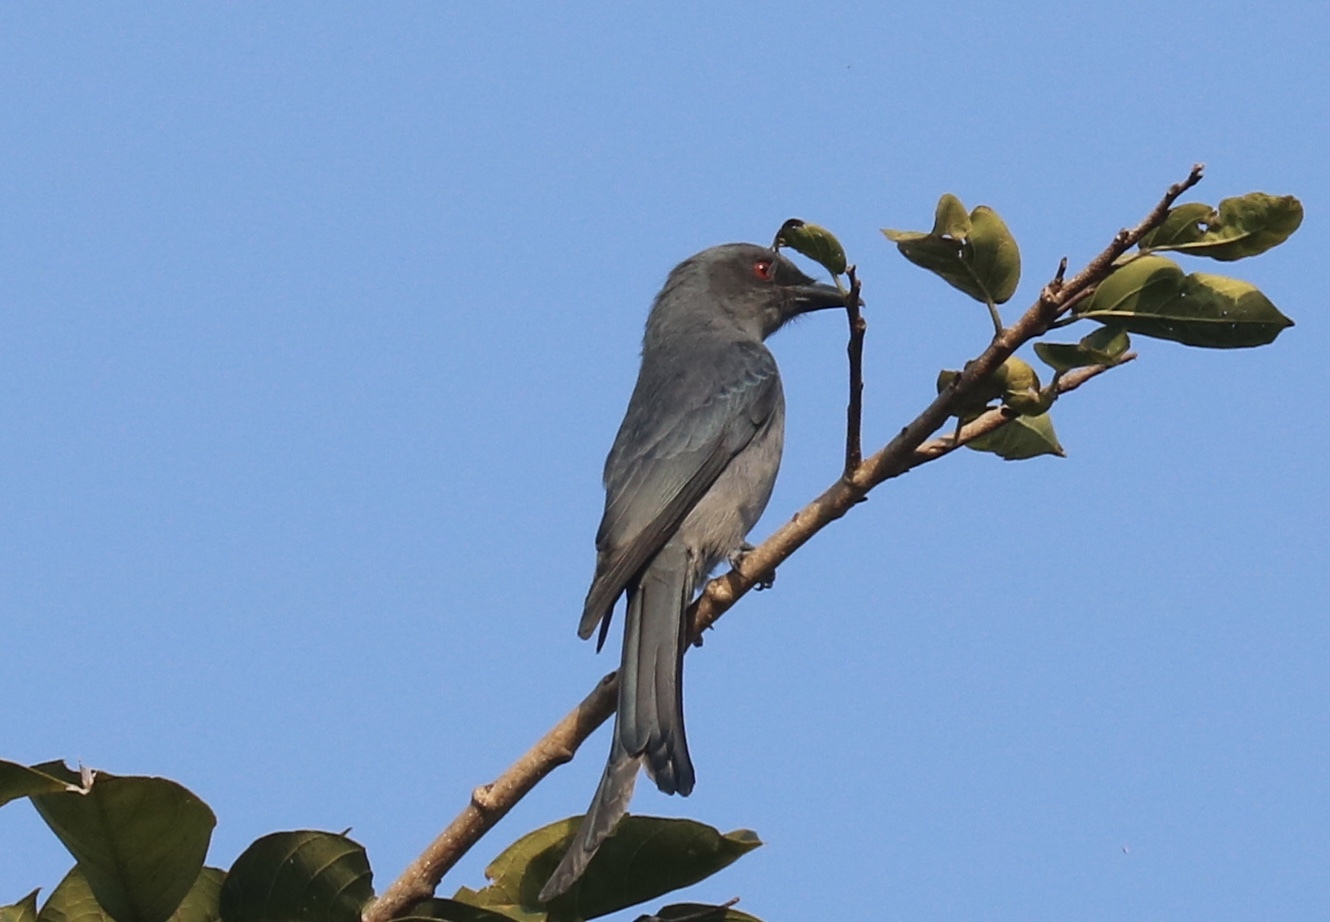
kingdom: Animalia
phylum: Chordata
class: Aves
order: Passeriformes
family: Dicruridae
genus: Dicrurus
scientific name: Dicrurus leucophaeus
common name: Ashy drongo
